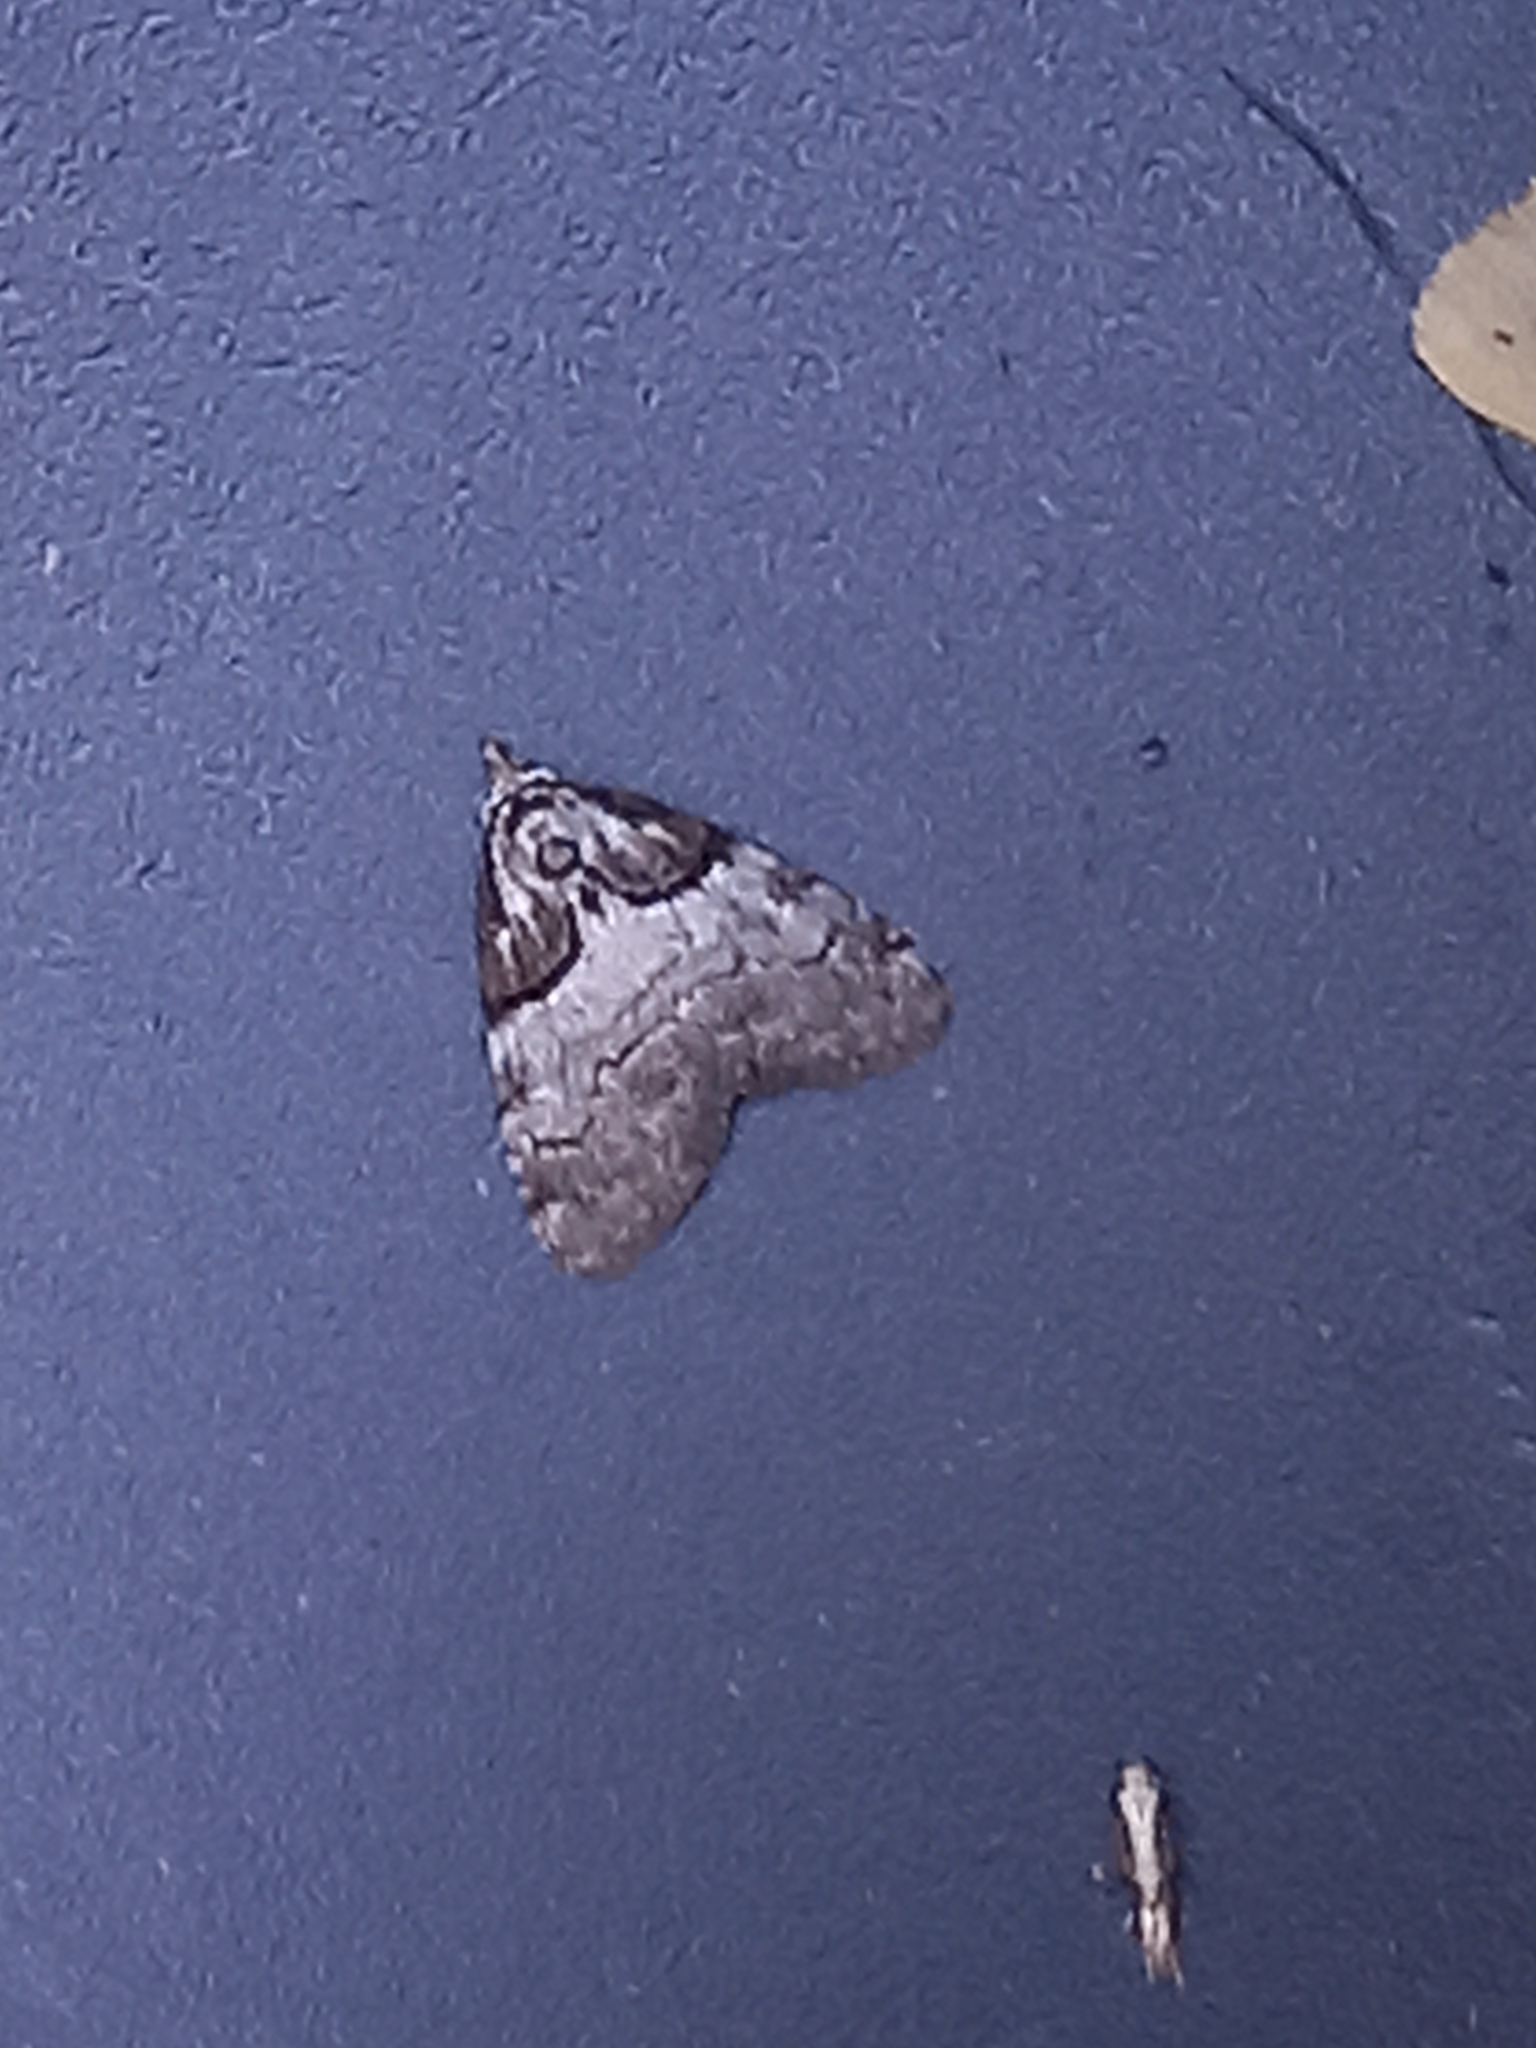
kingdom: Animalia
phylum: Arthropoda
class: Insecta
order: Lepidoptera
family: Nolidae
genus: Nola
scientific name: Nola cucullatella
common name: Short-cloaked moth
